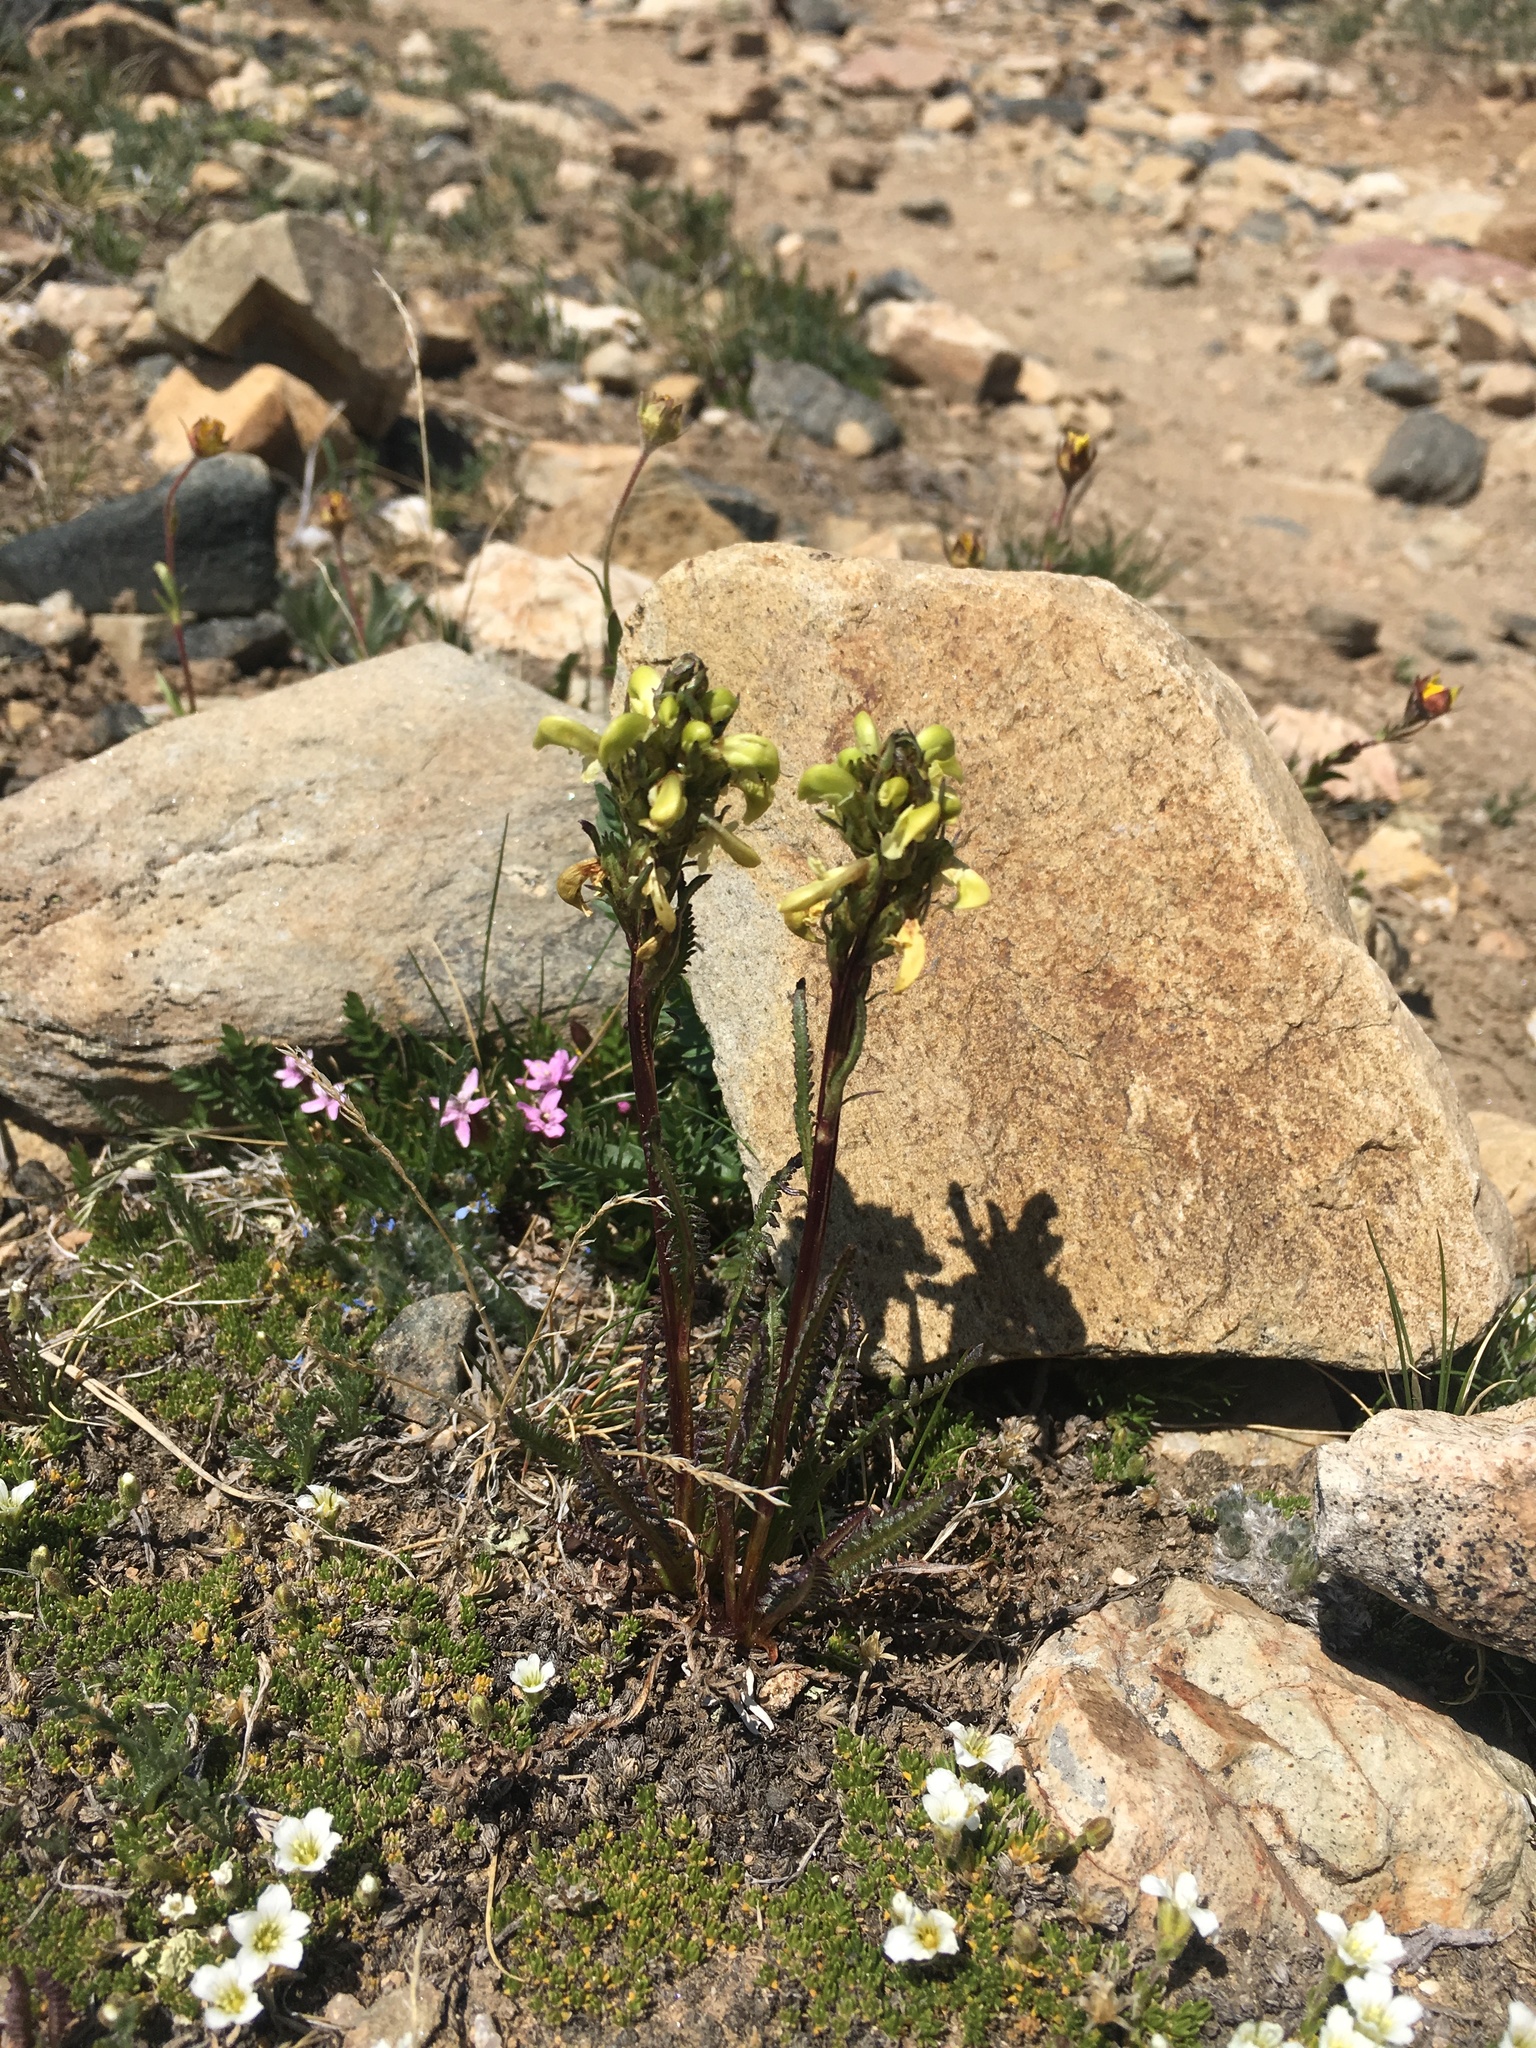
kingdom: Plantae
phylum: Tracheophyta
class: Magnoliopsida
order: Lamiales
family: Orobanchaceae
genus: Pedicularis
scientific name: Pedicularis parryi
